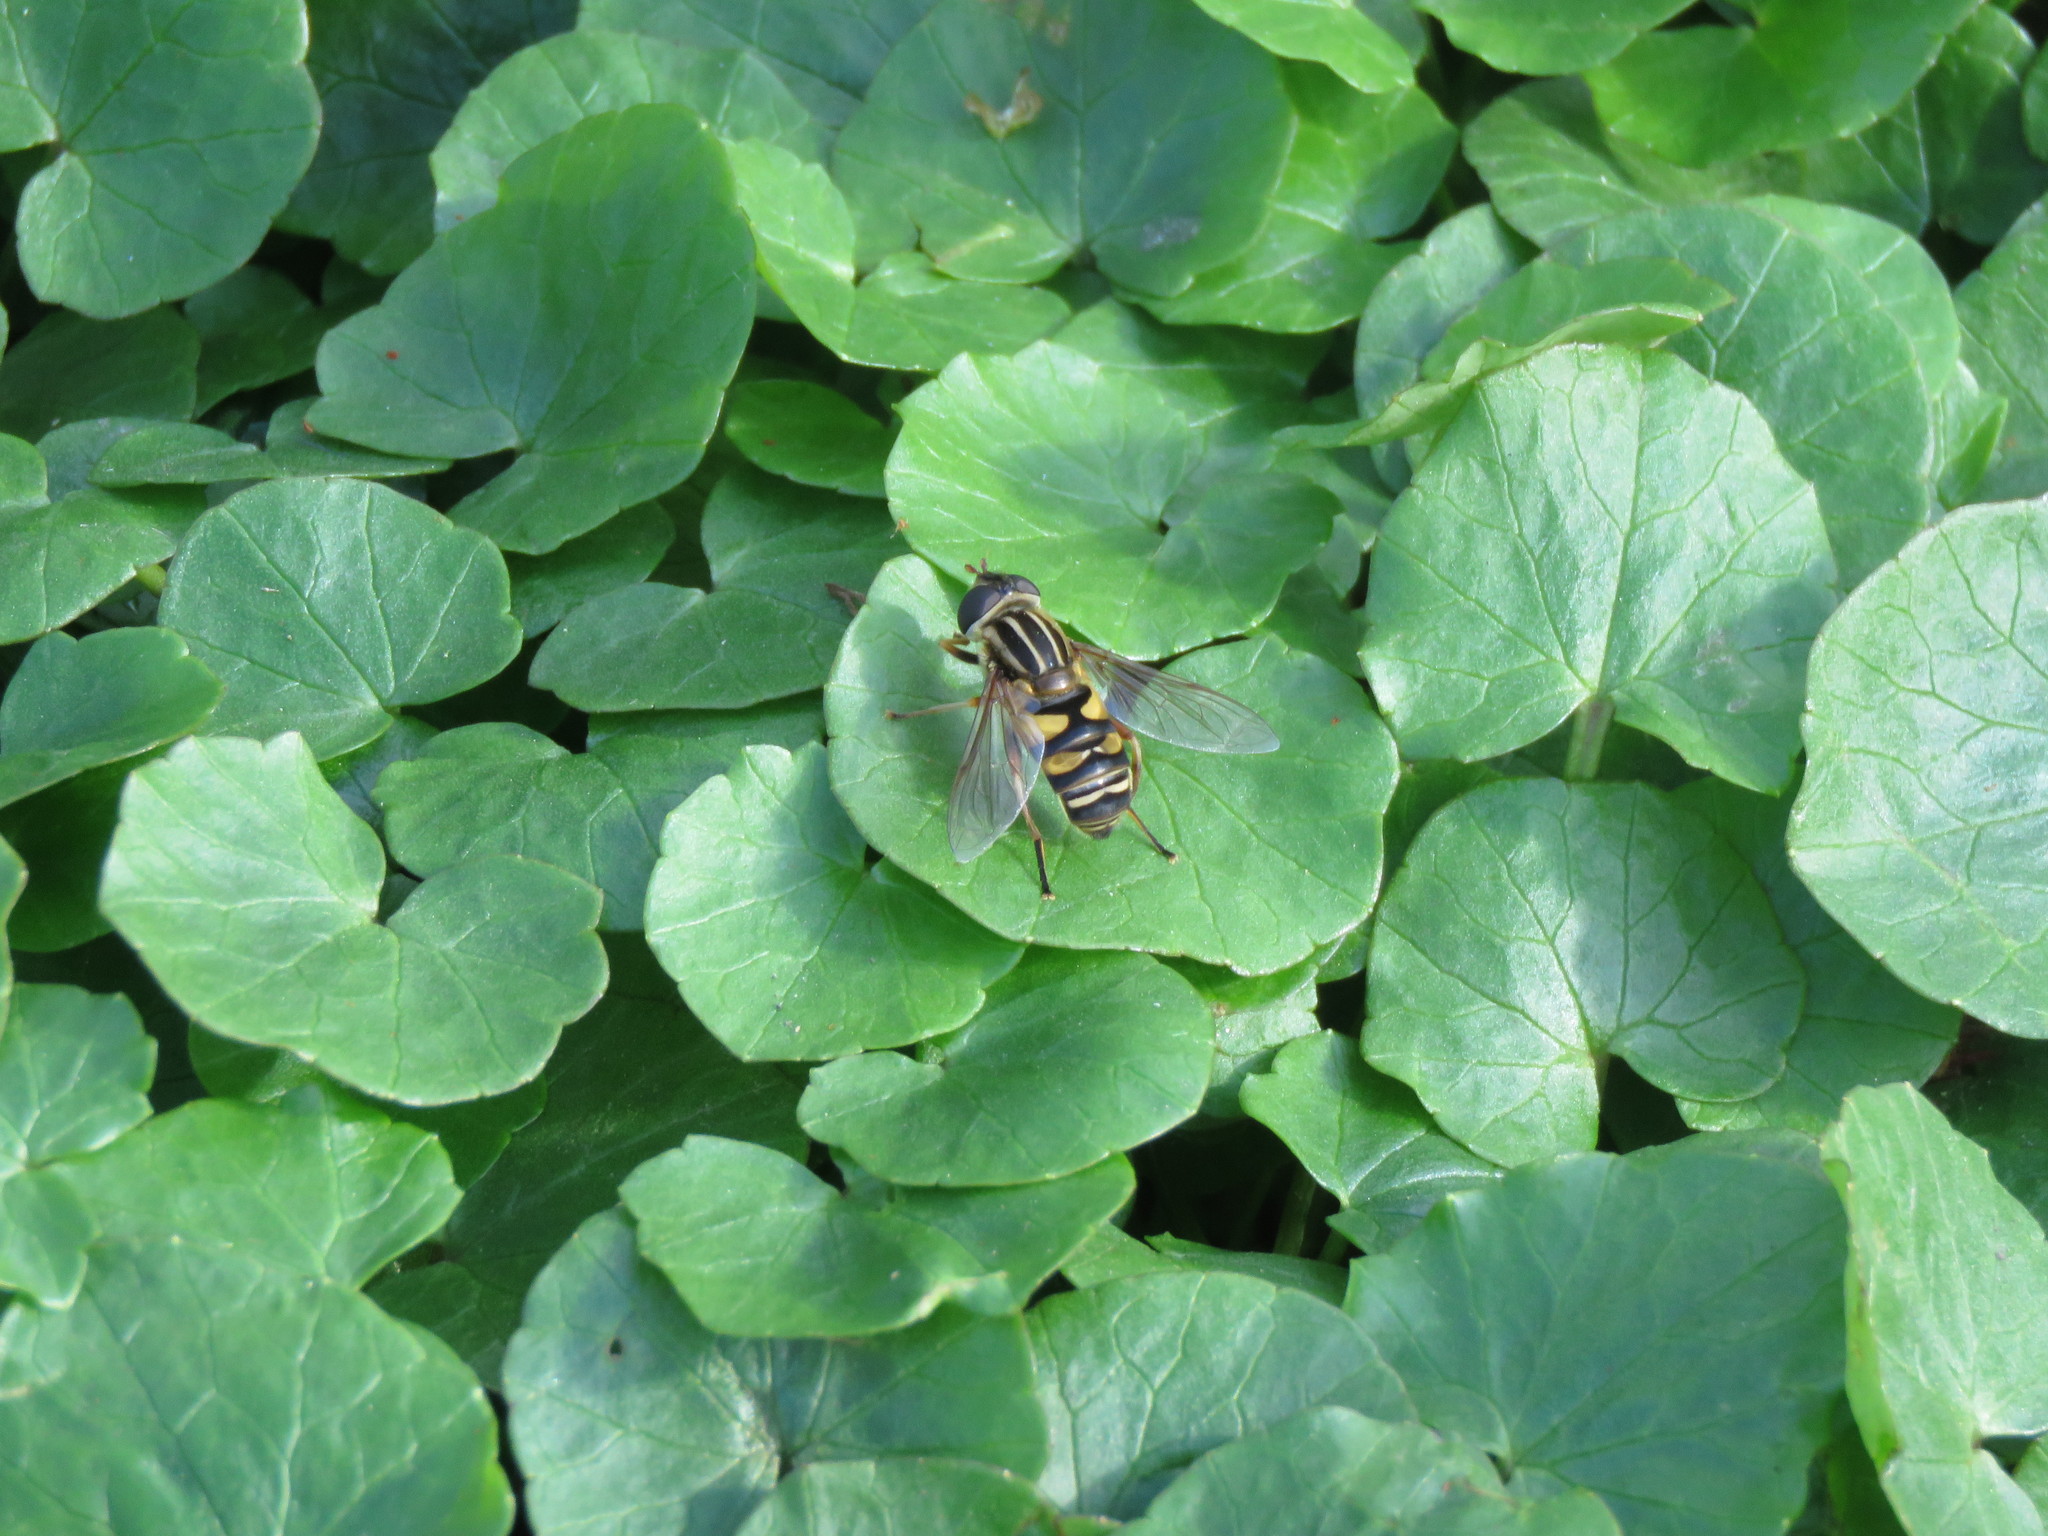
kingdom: Animalia
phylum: Arthropoda
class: Insecta
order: Diptera
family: Syrphidae
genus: Helophilus
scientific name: Helophilus fasciatus
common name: Narrow-headed marsh fly
